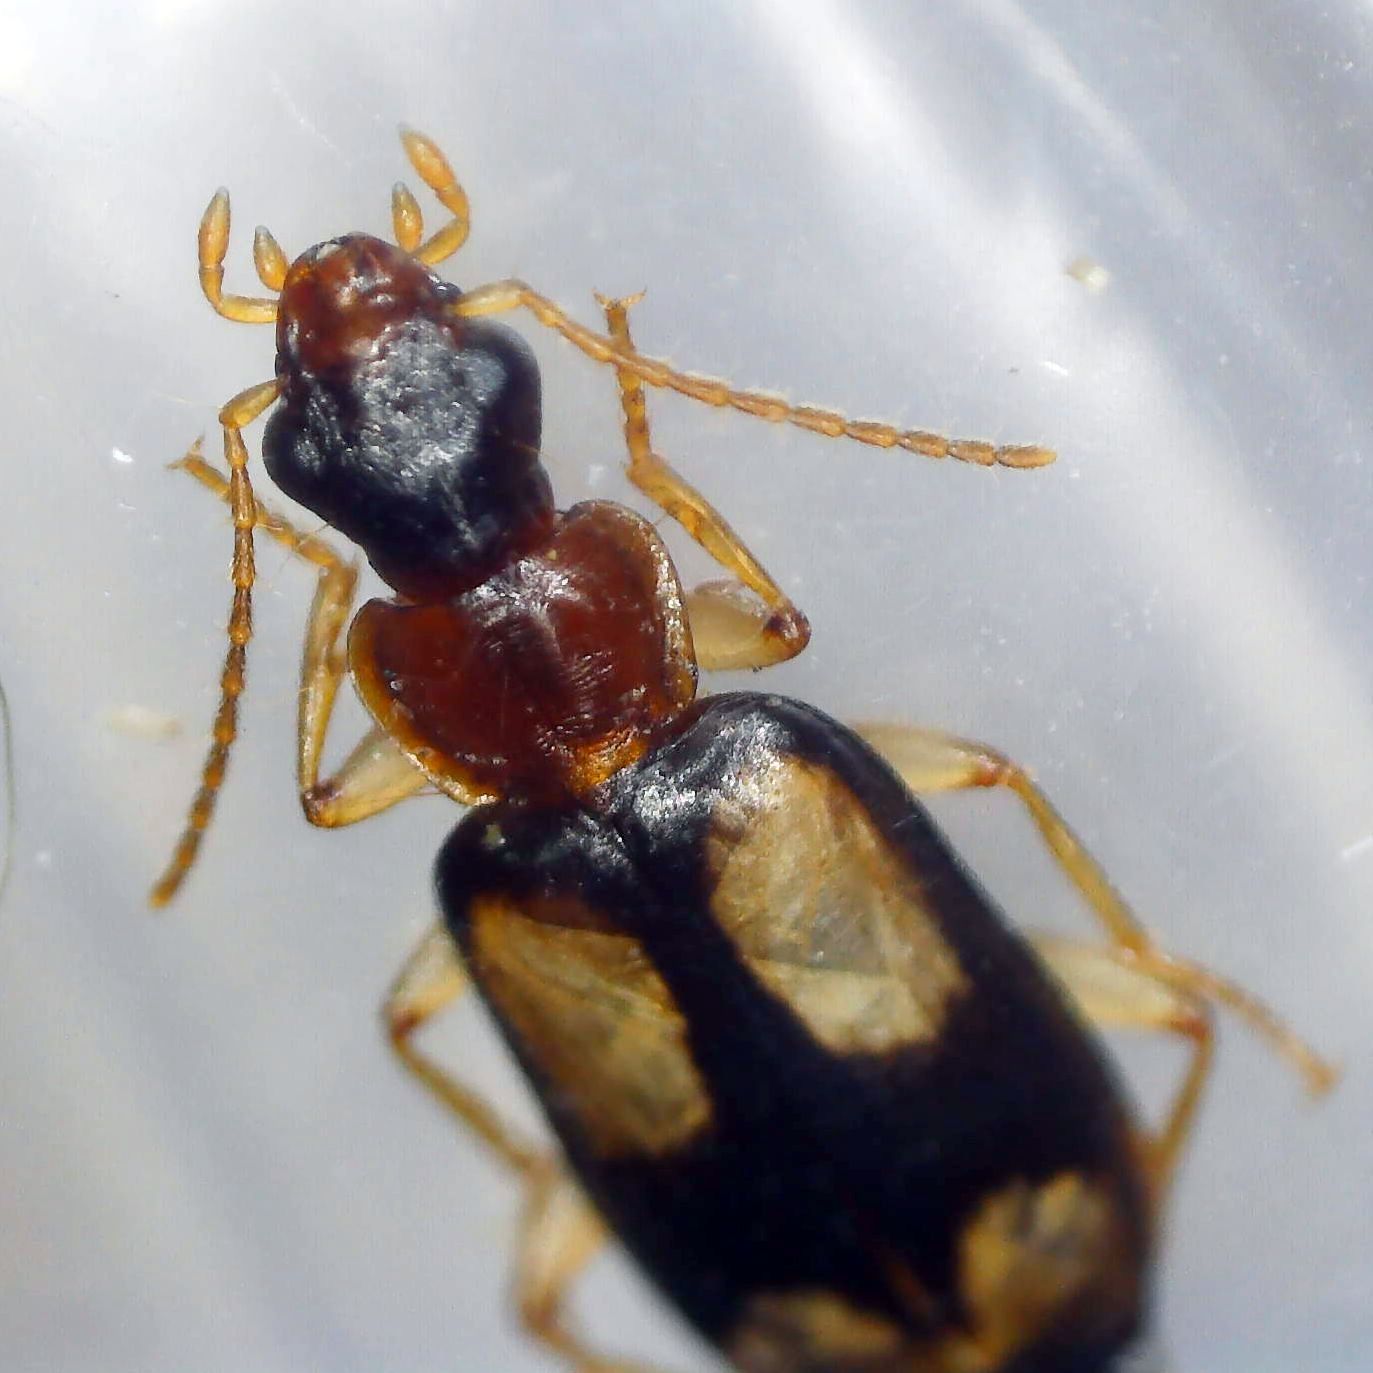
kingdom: Animalia
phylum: Arthropoda
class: Insecta
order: Coleoptera
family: Carabidae
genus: Dromius
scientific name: Dromius quadrimaculatus
